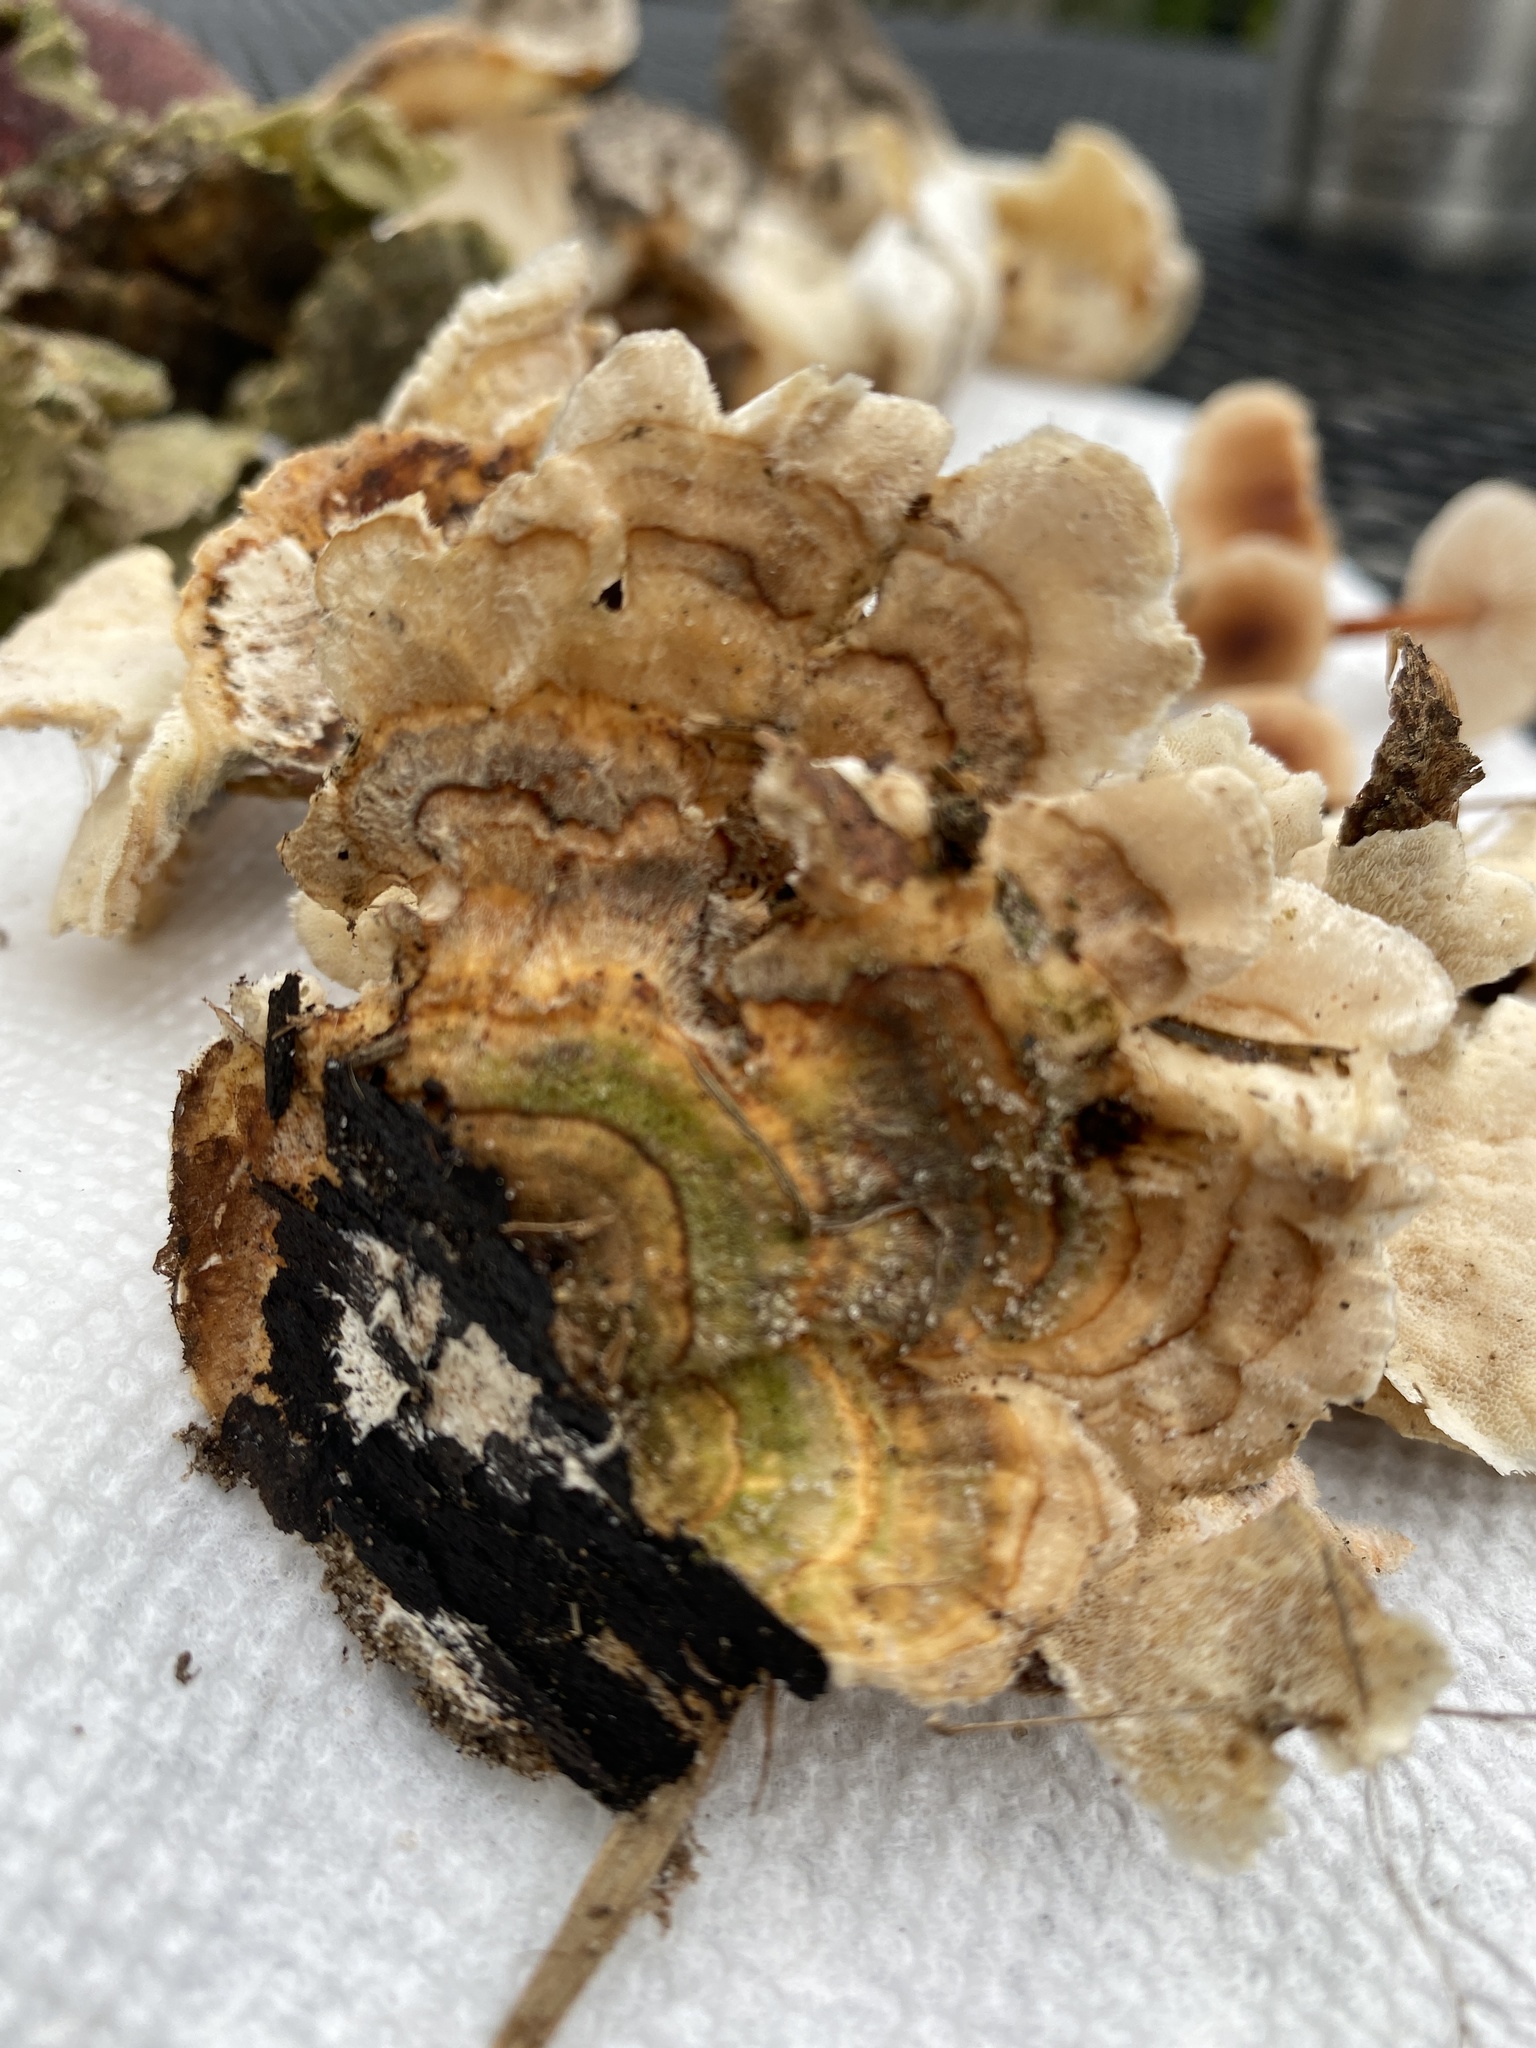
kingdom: Fungi
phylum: Basidiomycota
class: Agaricomycetes
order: Polyporales
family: Polyporaceae
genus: Trametes
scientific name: Trametes versicolor
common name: Turkeytail
